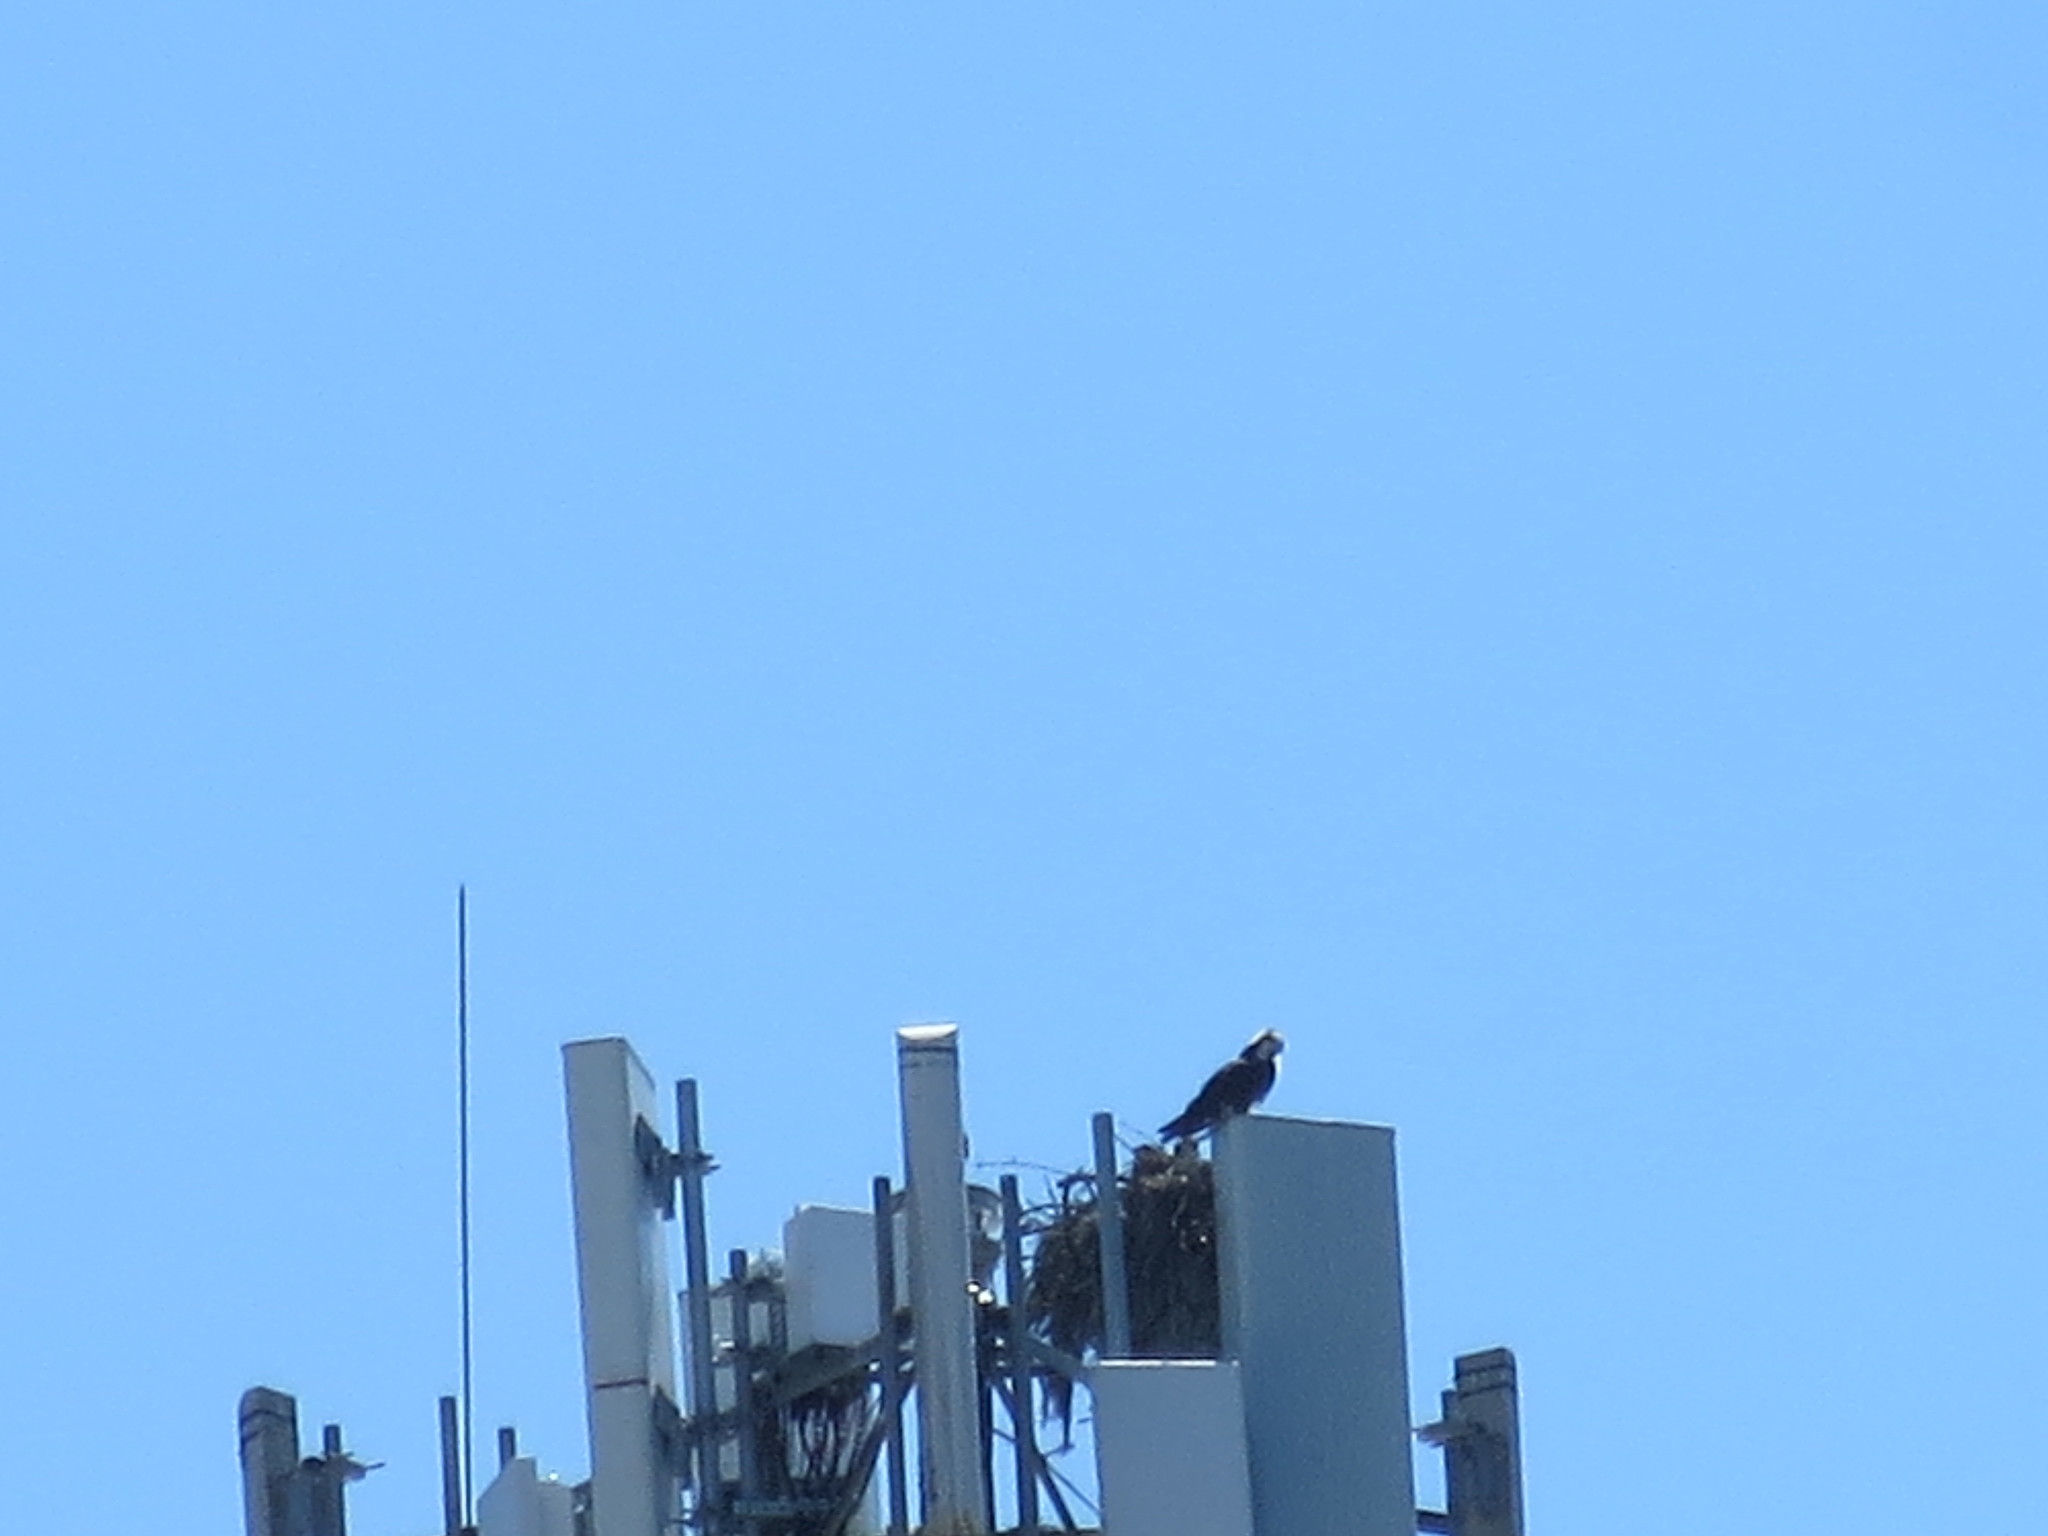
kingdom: Animalia
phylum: Chordata
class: Aves
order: Accipitriformes
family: Pandionidae
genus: Pandion
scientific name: Pandion haliaetus
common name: Osprey
